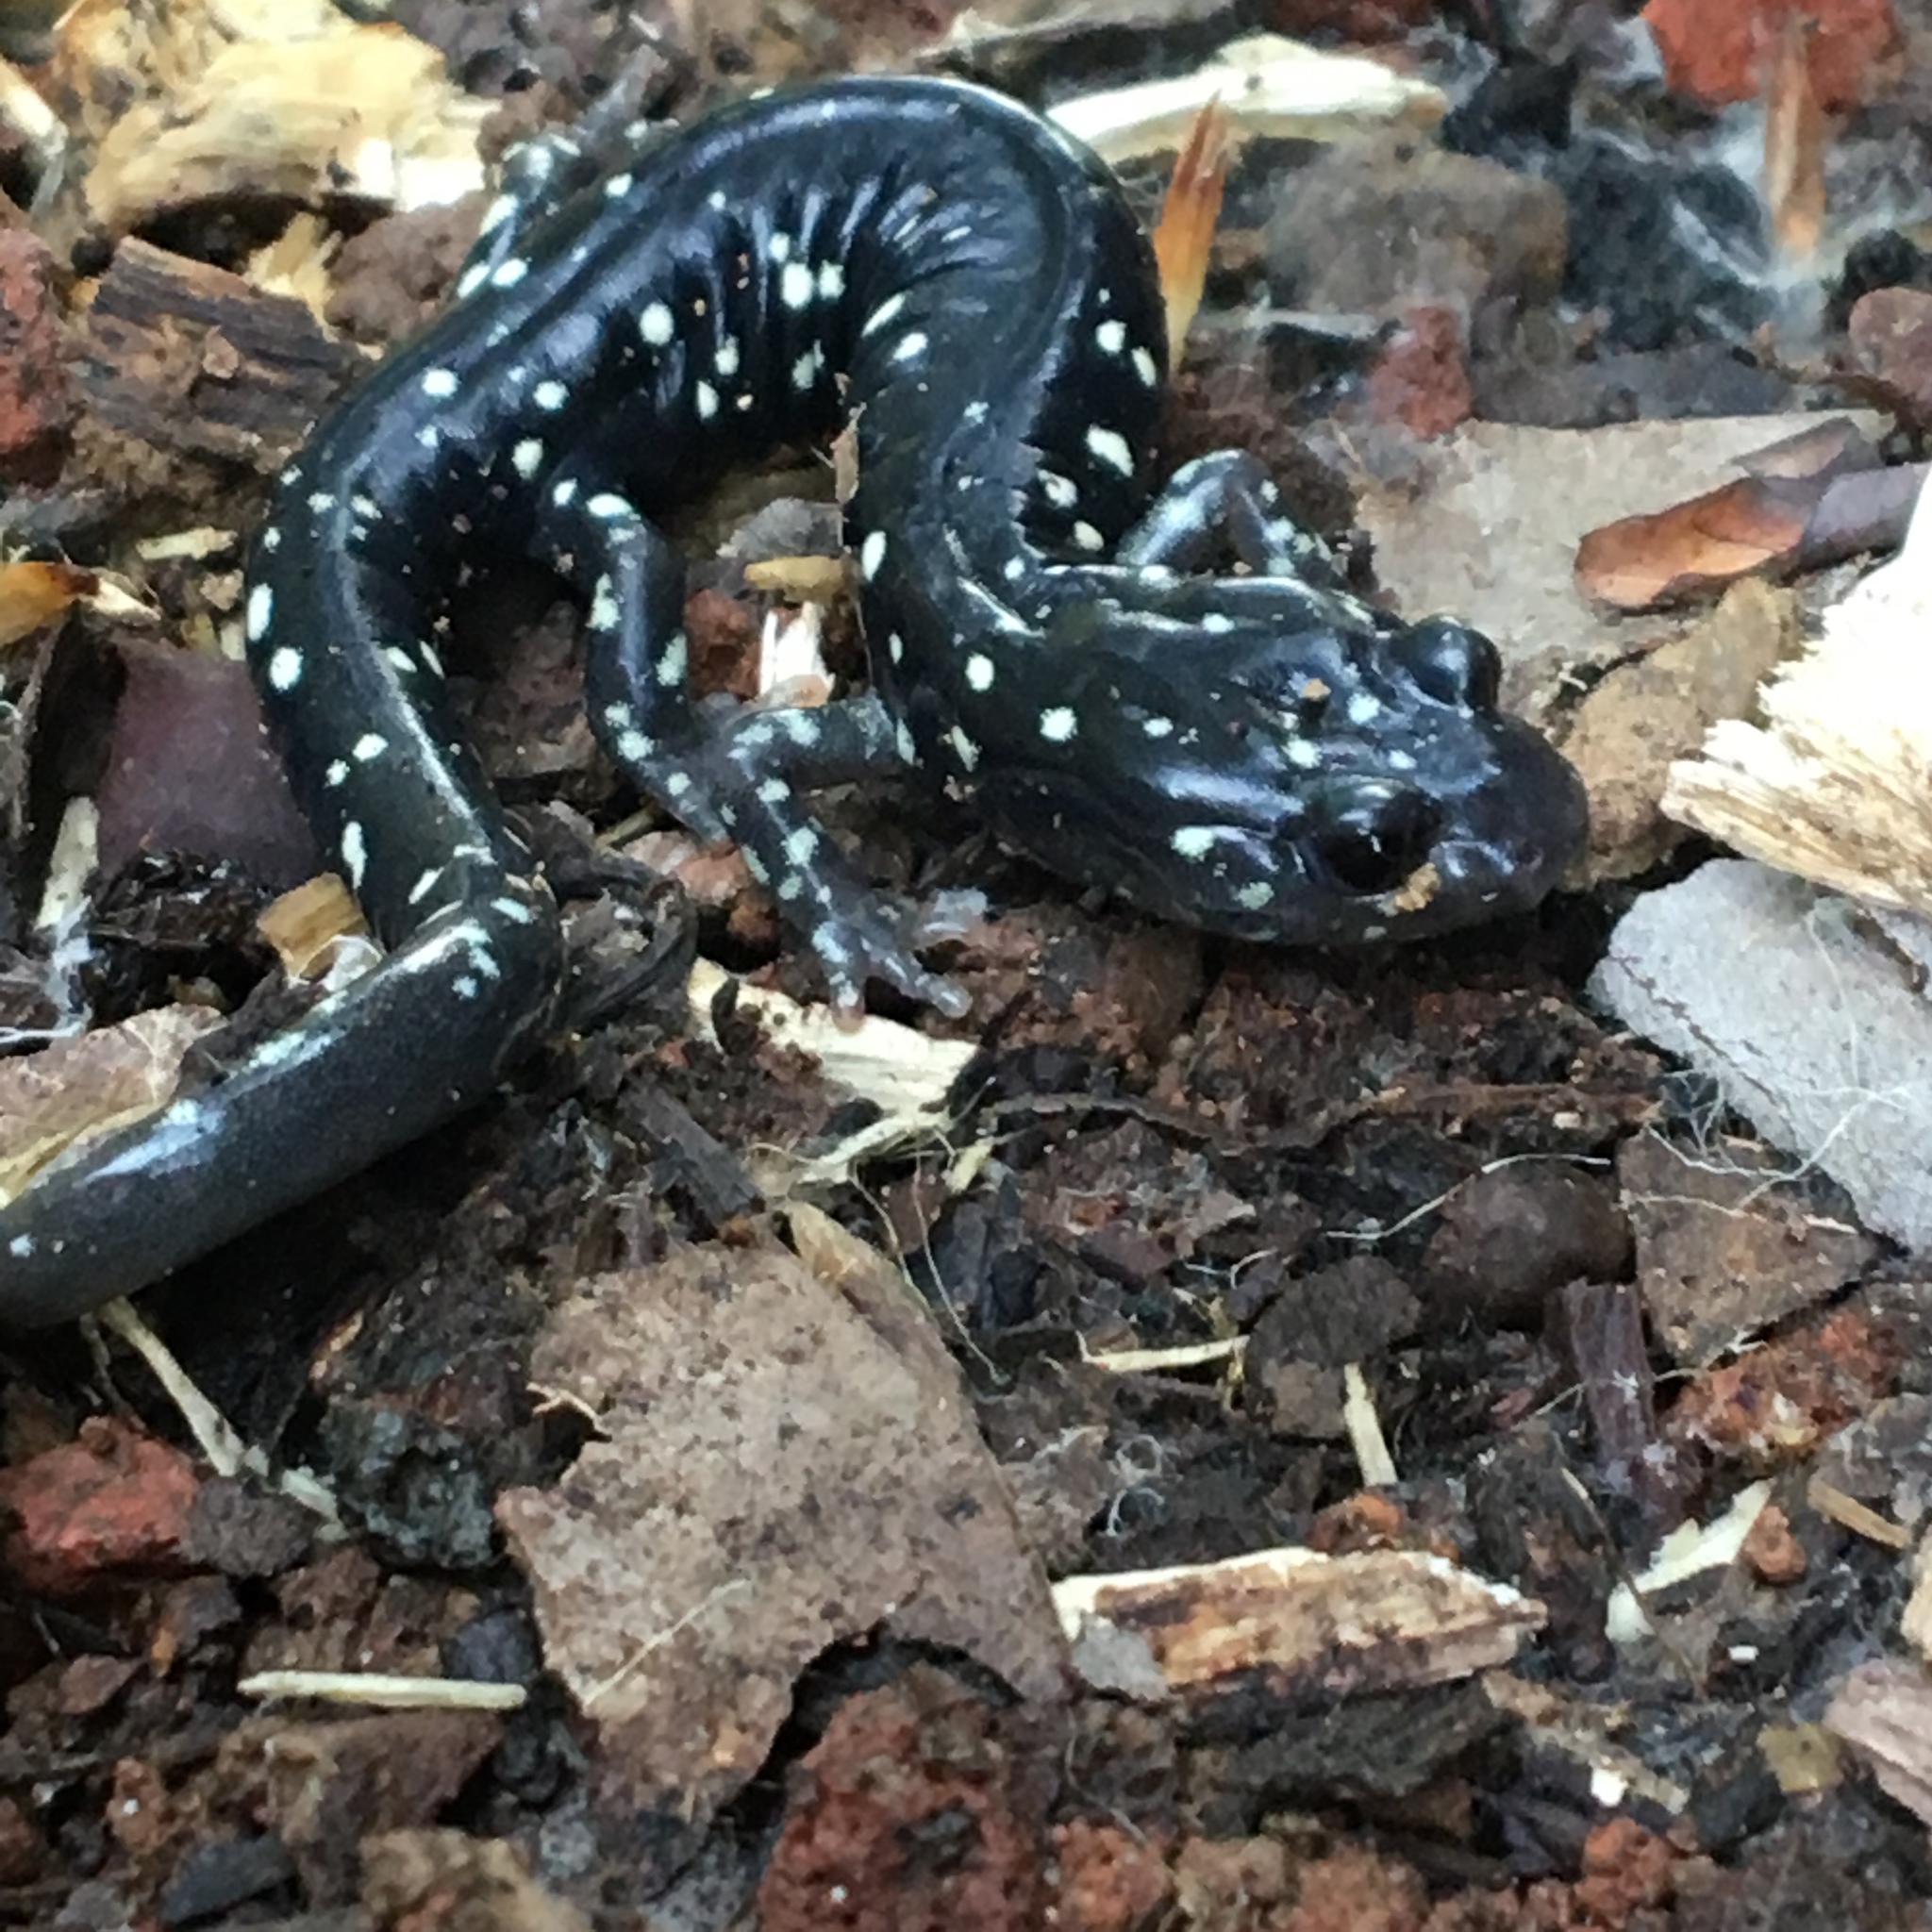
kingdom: Animalia
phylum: Chordata
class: Amphibia
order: Caudata
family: Plethodontidae
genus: Aneides
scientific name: Aneides flavipunctatus
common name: Black salamander
